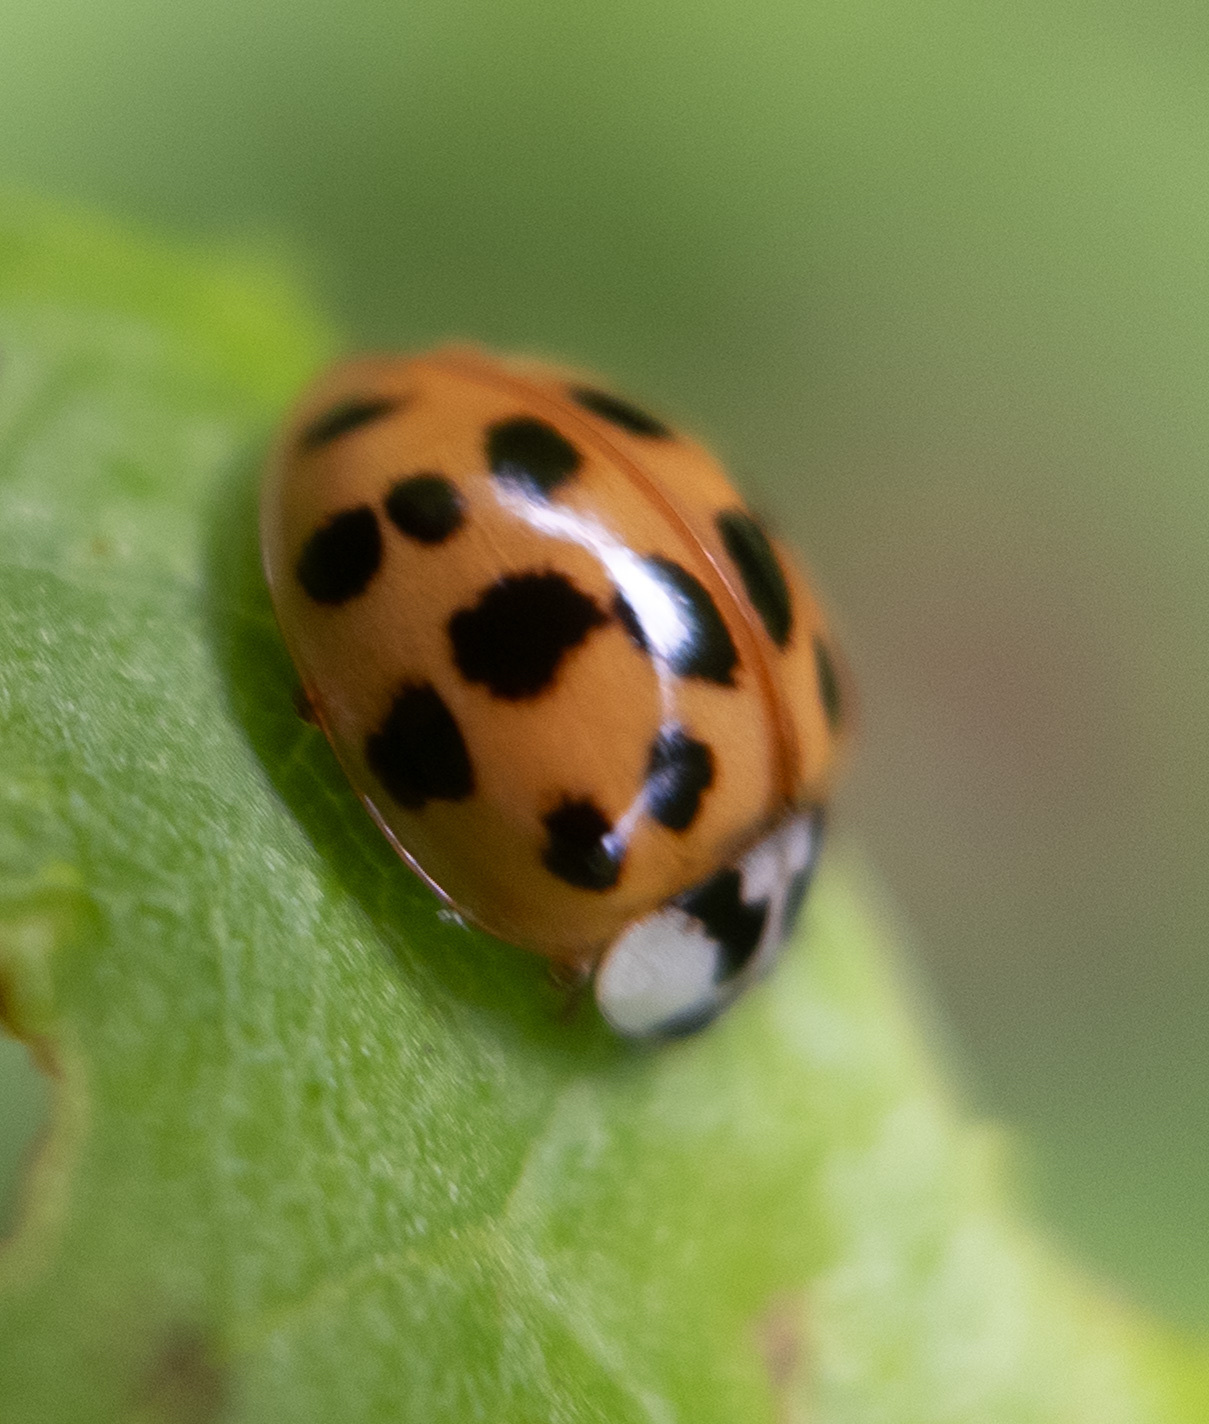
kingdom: Animalia
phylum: Arthropoda
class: Insecta
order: Coleoptera
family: Coccinellidae
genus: Harmonia
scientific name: Harmonia axyridis
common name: Harlequin ladybird
